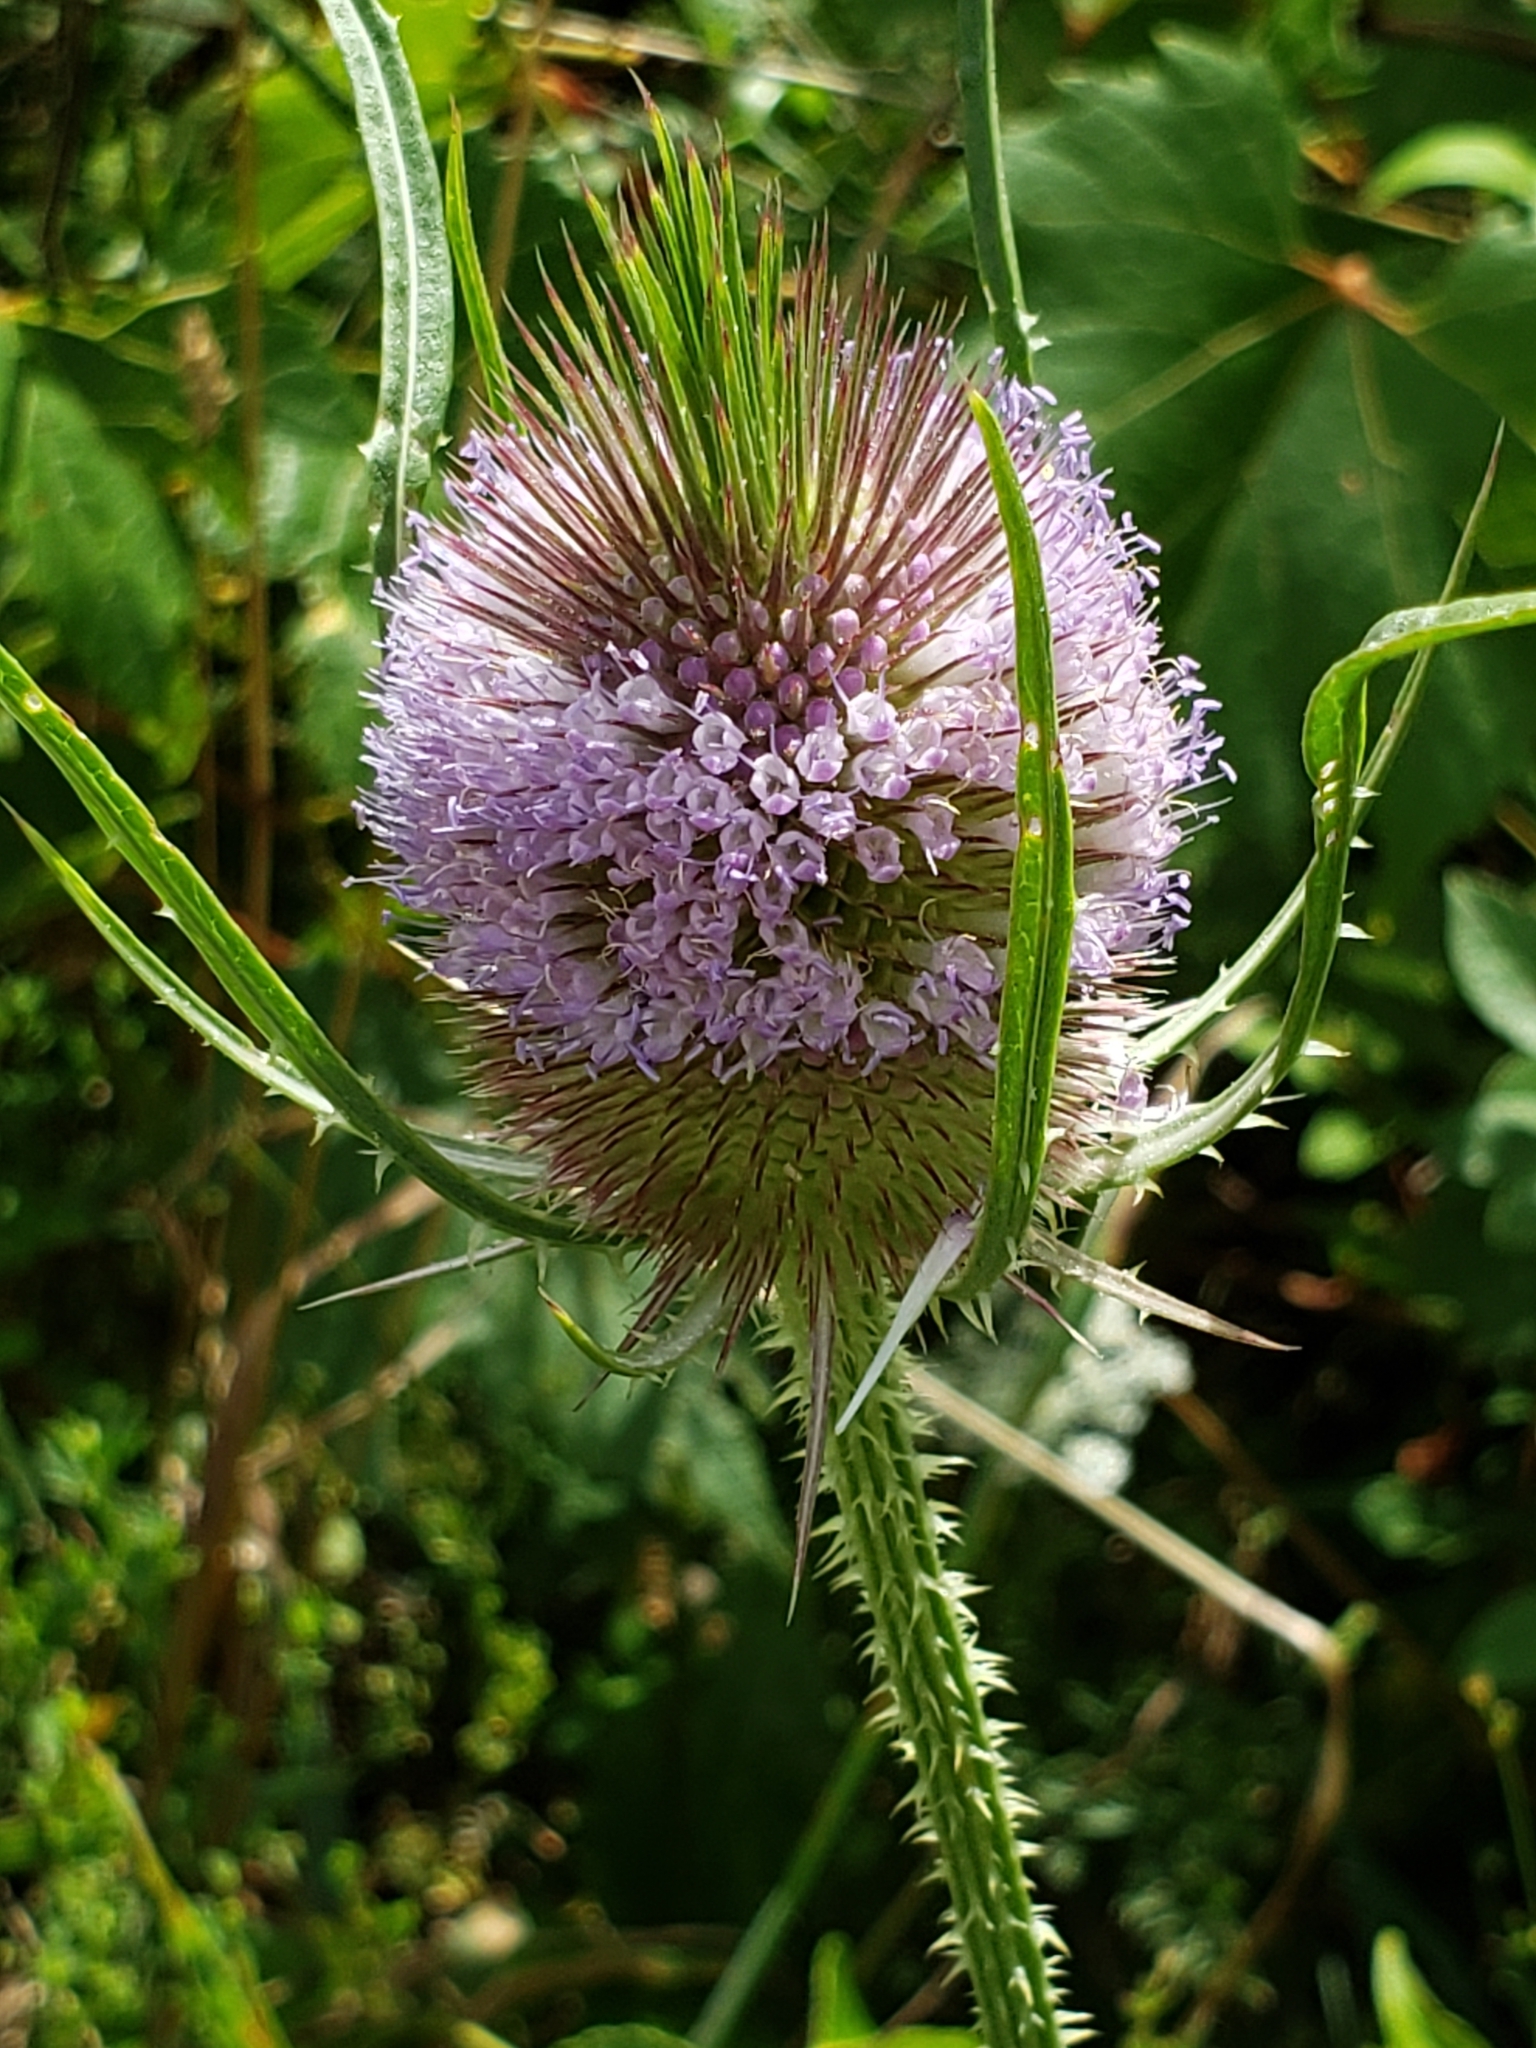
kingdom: Plantae
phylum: Tracheophyta
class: Magnoliopsida
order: Dipsacales
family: Caprifoliaceae
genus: Dipsacus
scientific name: Dipsacus fullonum
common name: Teasel
